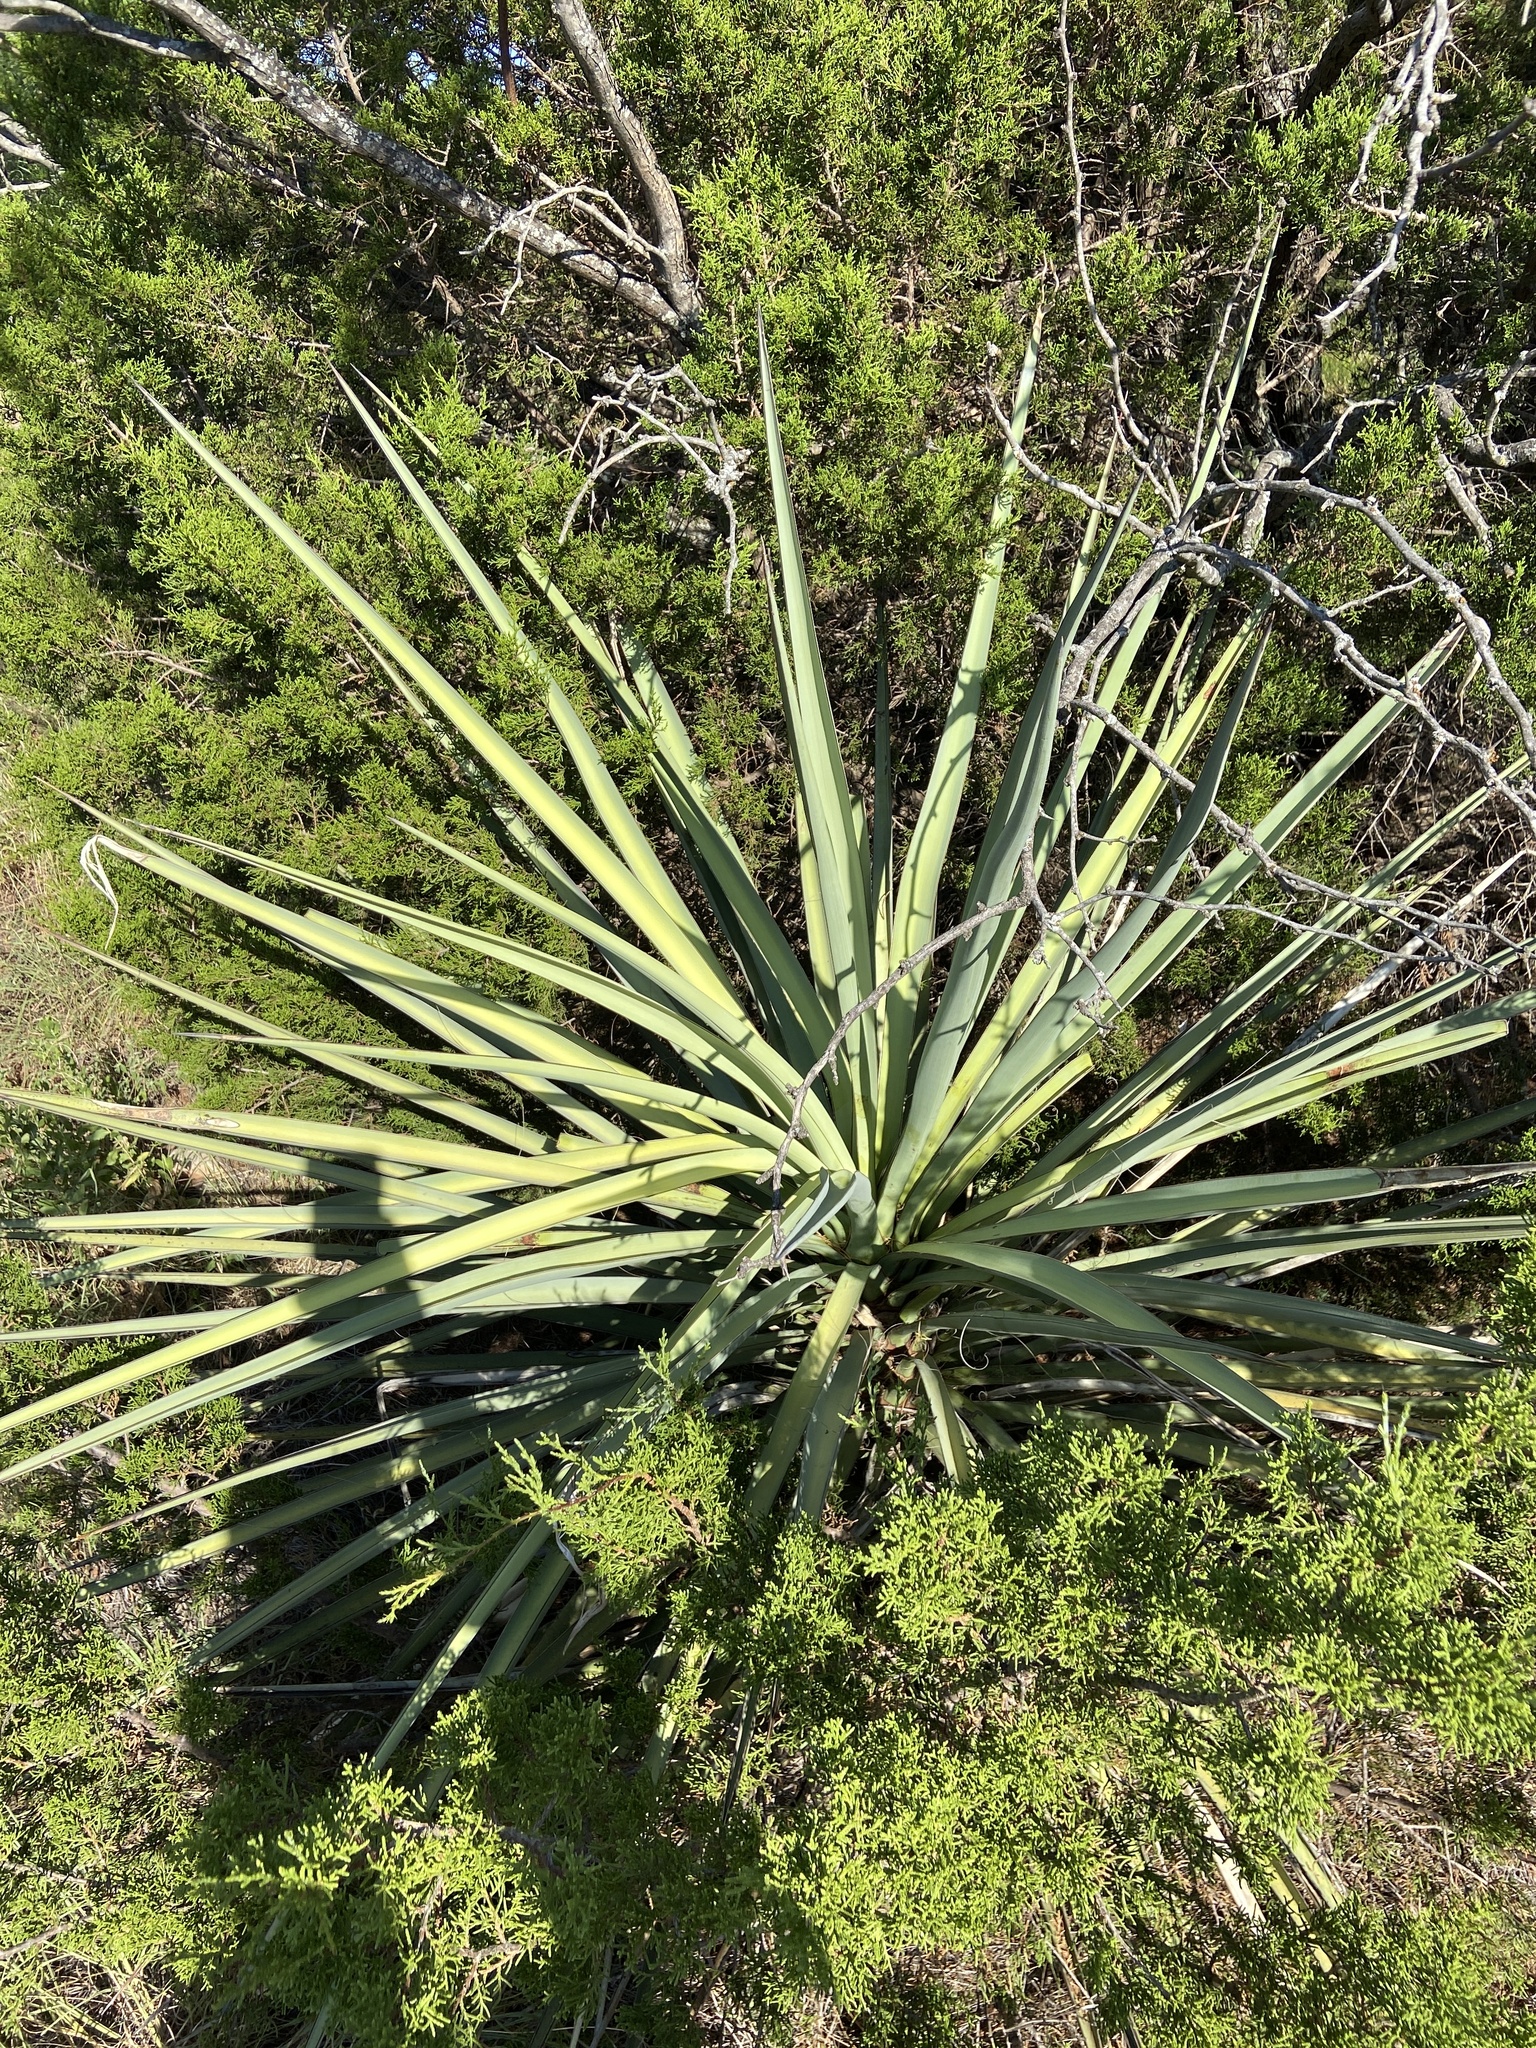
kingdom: Plantae
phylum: Tracheophyta
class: Liliopsida
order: Asparagales
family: Asparagaceae
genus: Yucca
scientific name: Yucca treculiana
